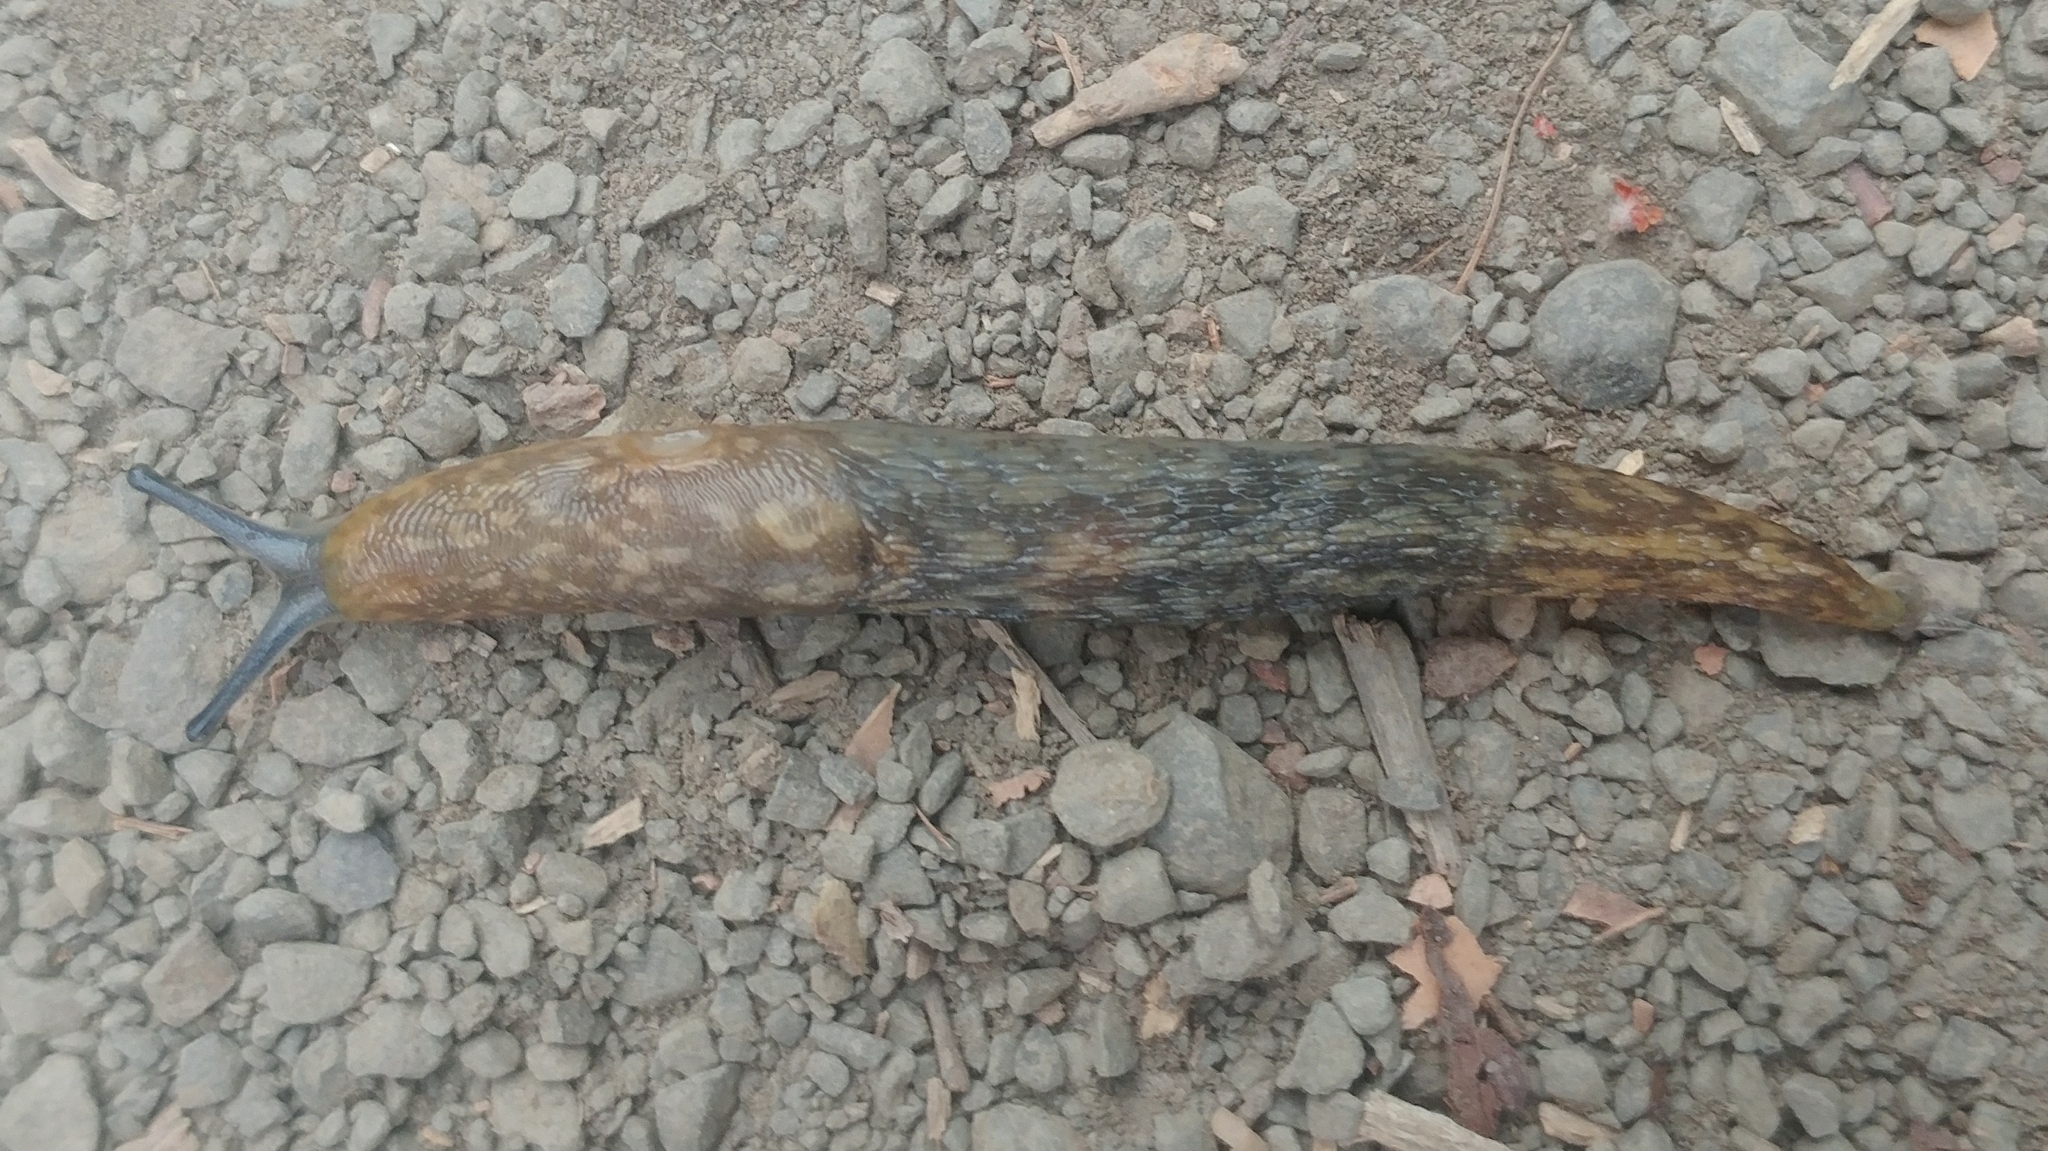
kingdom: Animalia
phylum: Mollusca
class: Gastropoda
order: Stylommatophora
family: Limacidae
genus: Limacus
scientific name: Limacus flavus
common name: Yellow gardenslug
